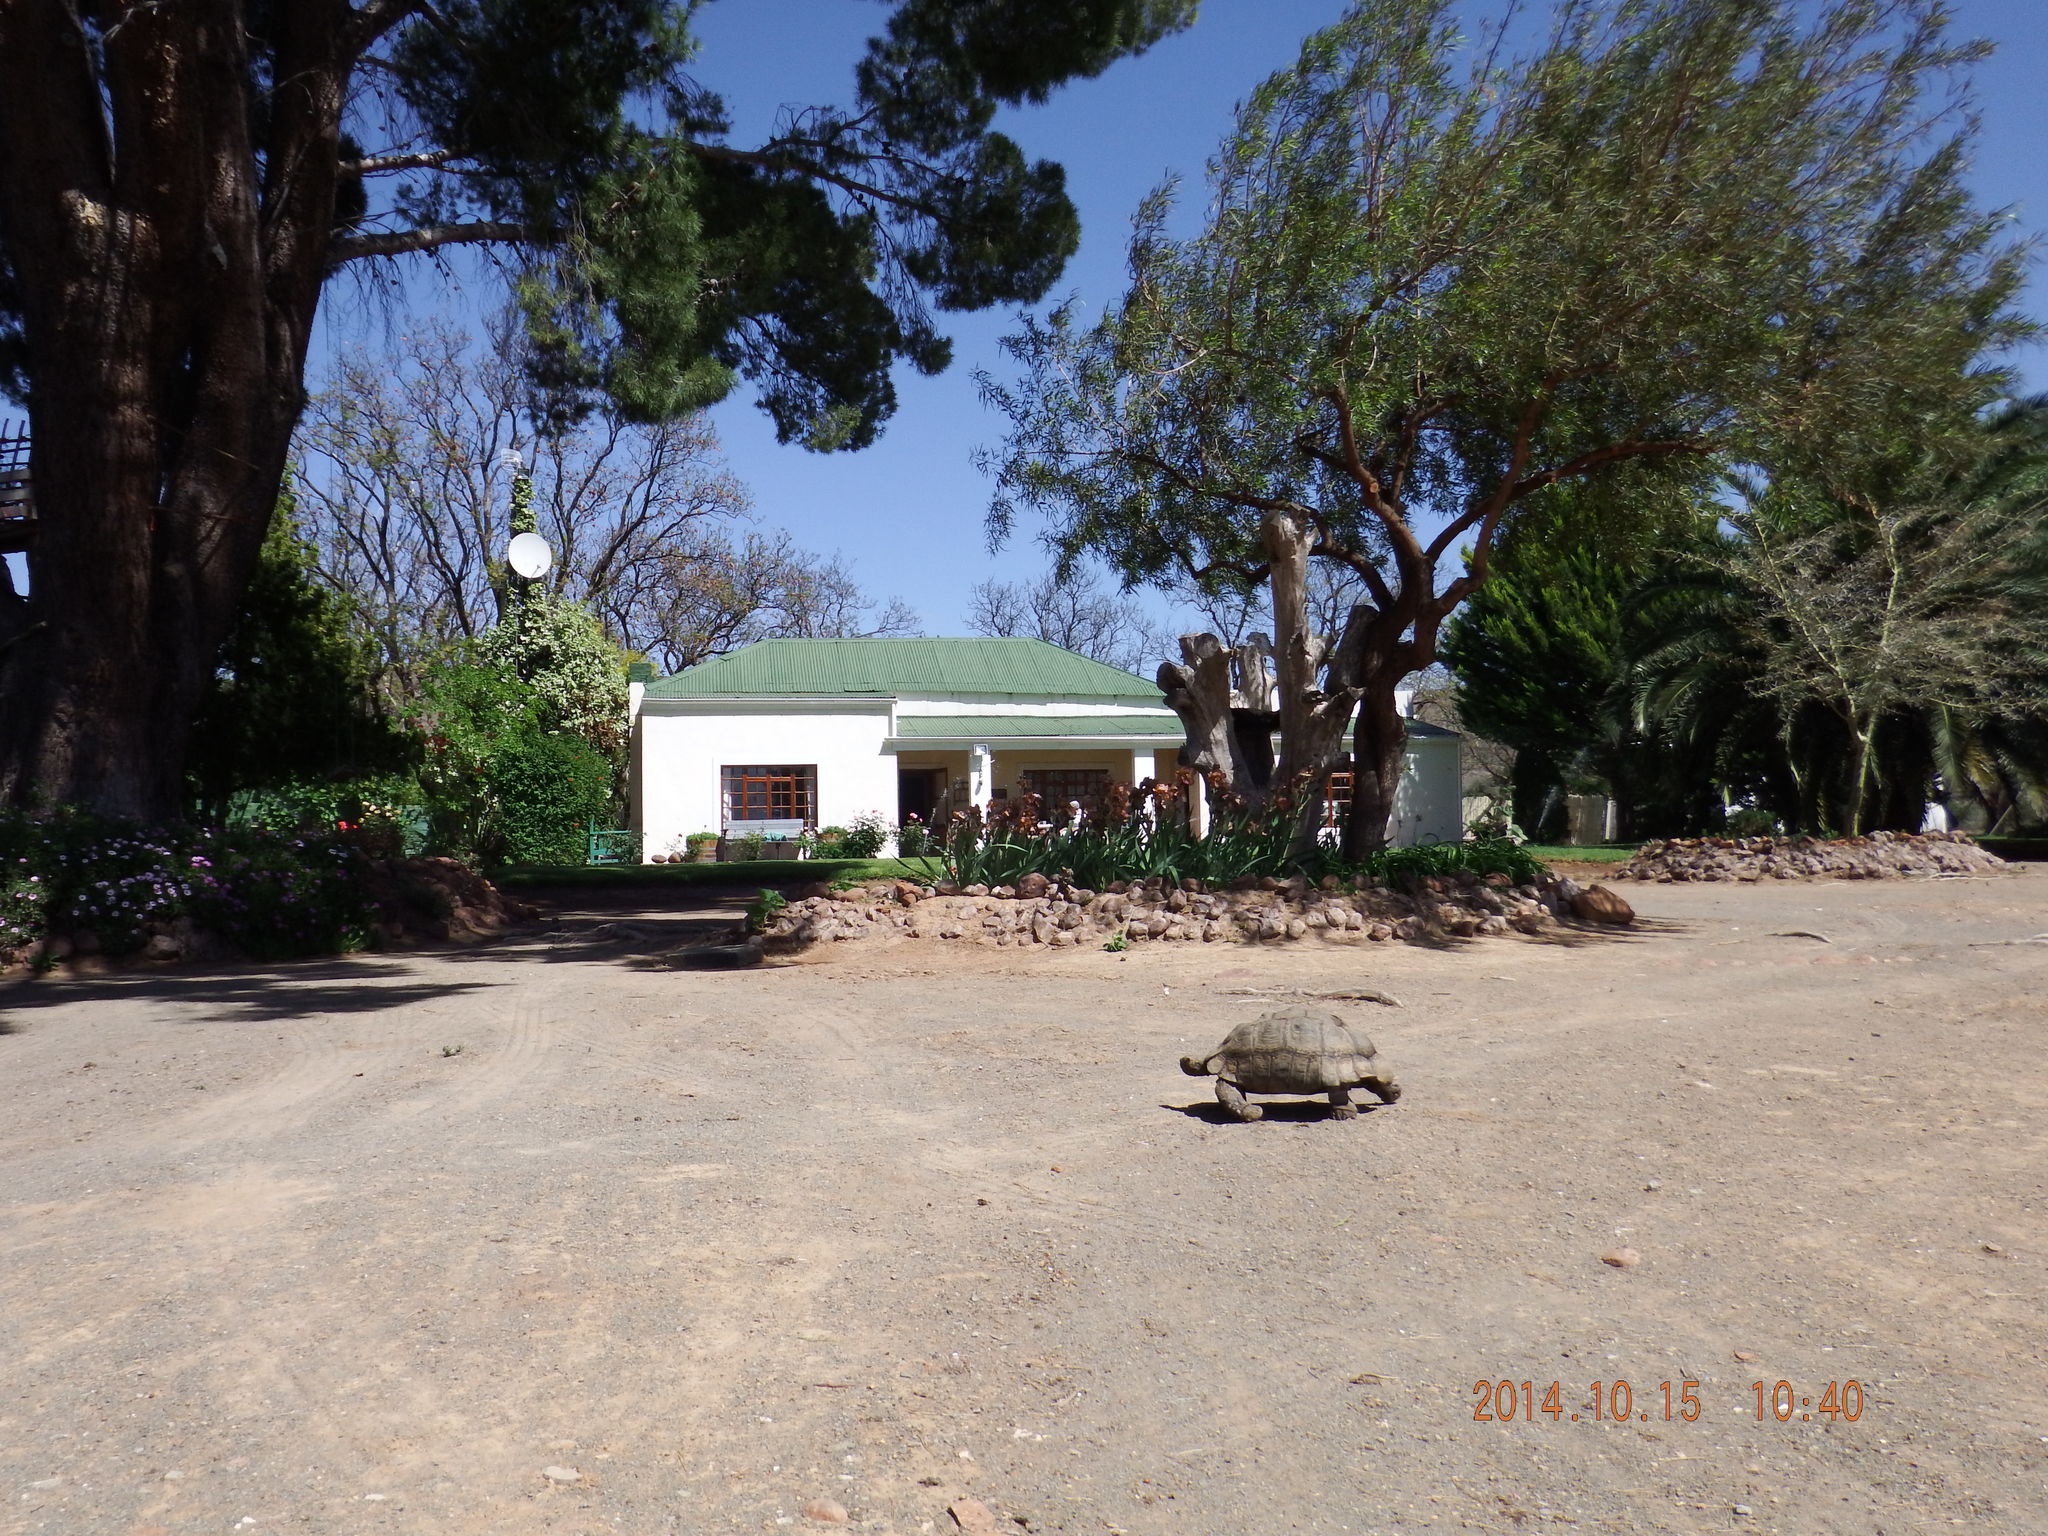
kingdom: Animalia
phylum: Chordata
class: Testudines
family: Testudinidae
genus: Stigmochelys
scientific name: Stigmochelys pardalis
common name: Leopard tortoise
